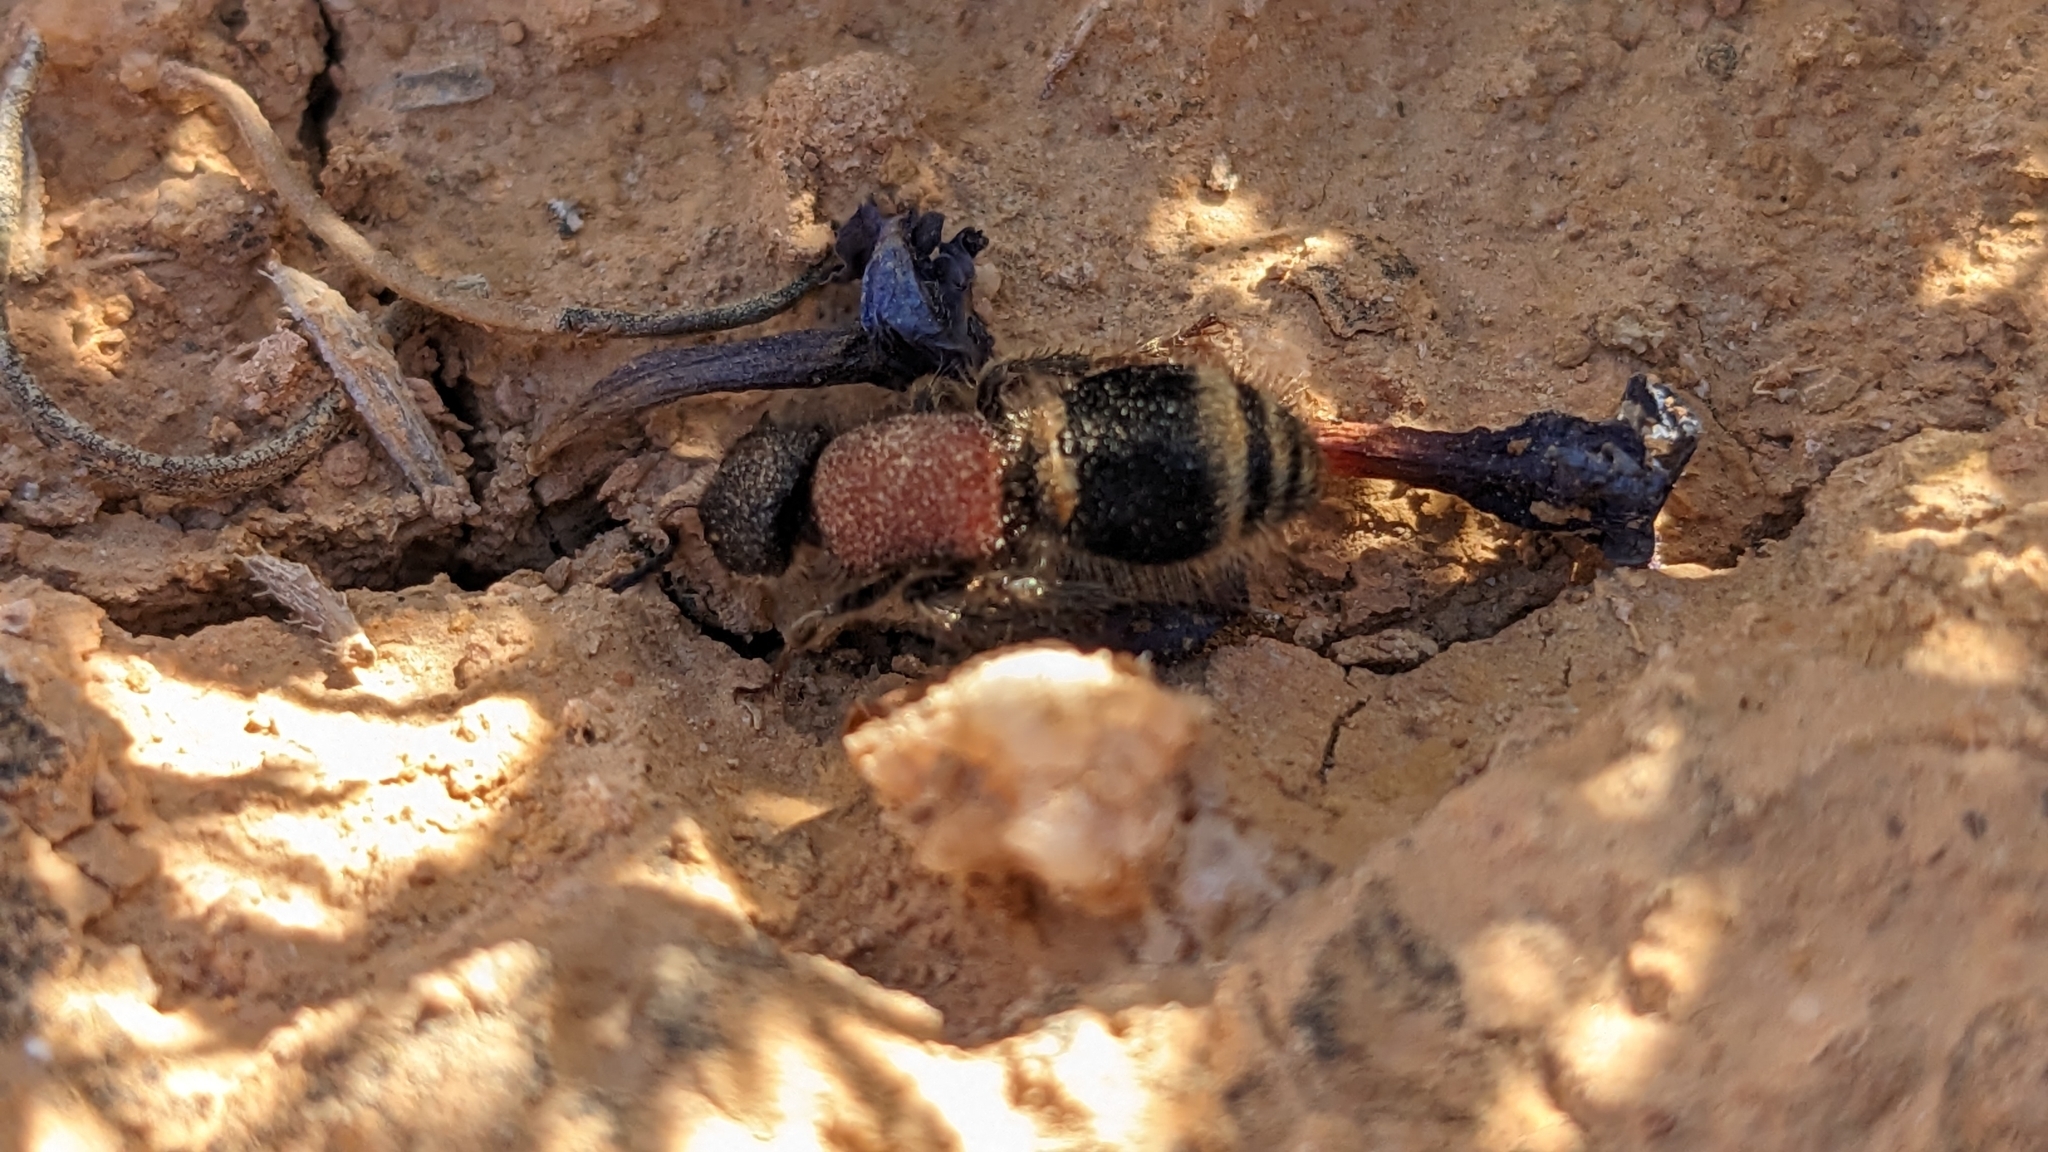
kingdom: Animalia
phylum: Arthropoda
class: Insecta
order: Hymenoptera
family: Mutillidae
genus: Tropidotilla
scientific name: Tropidotilla litoralis
